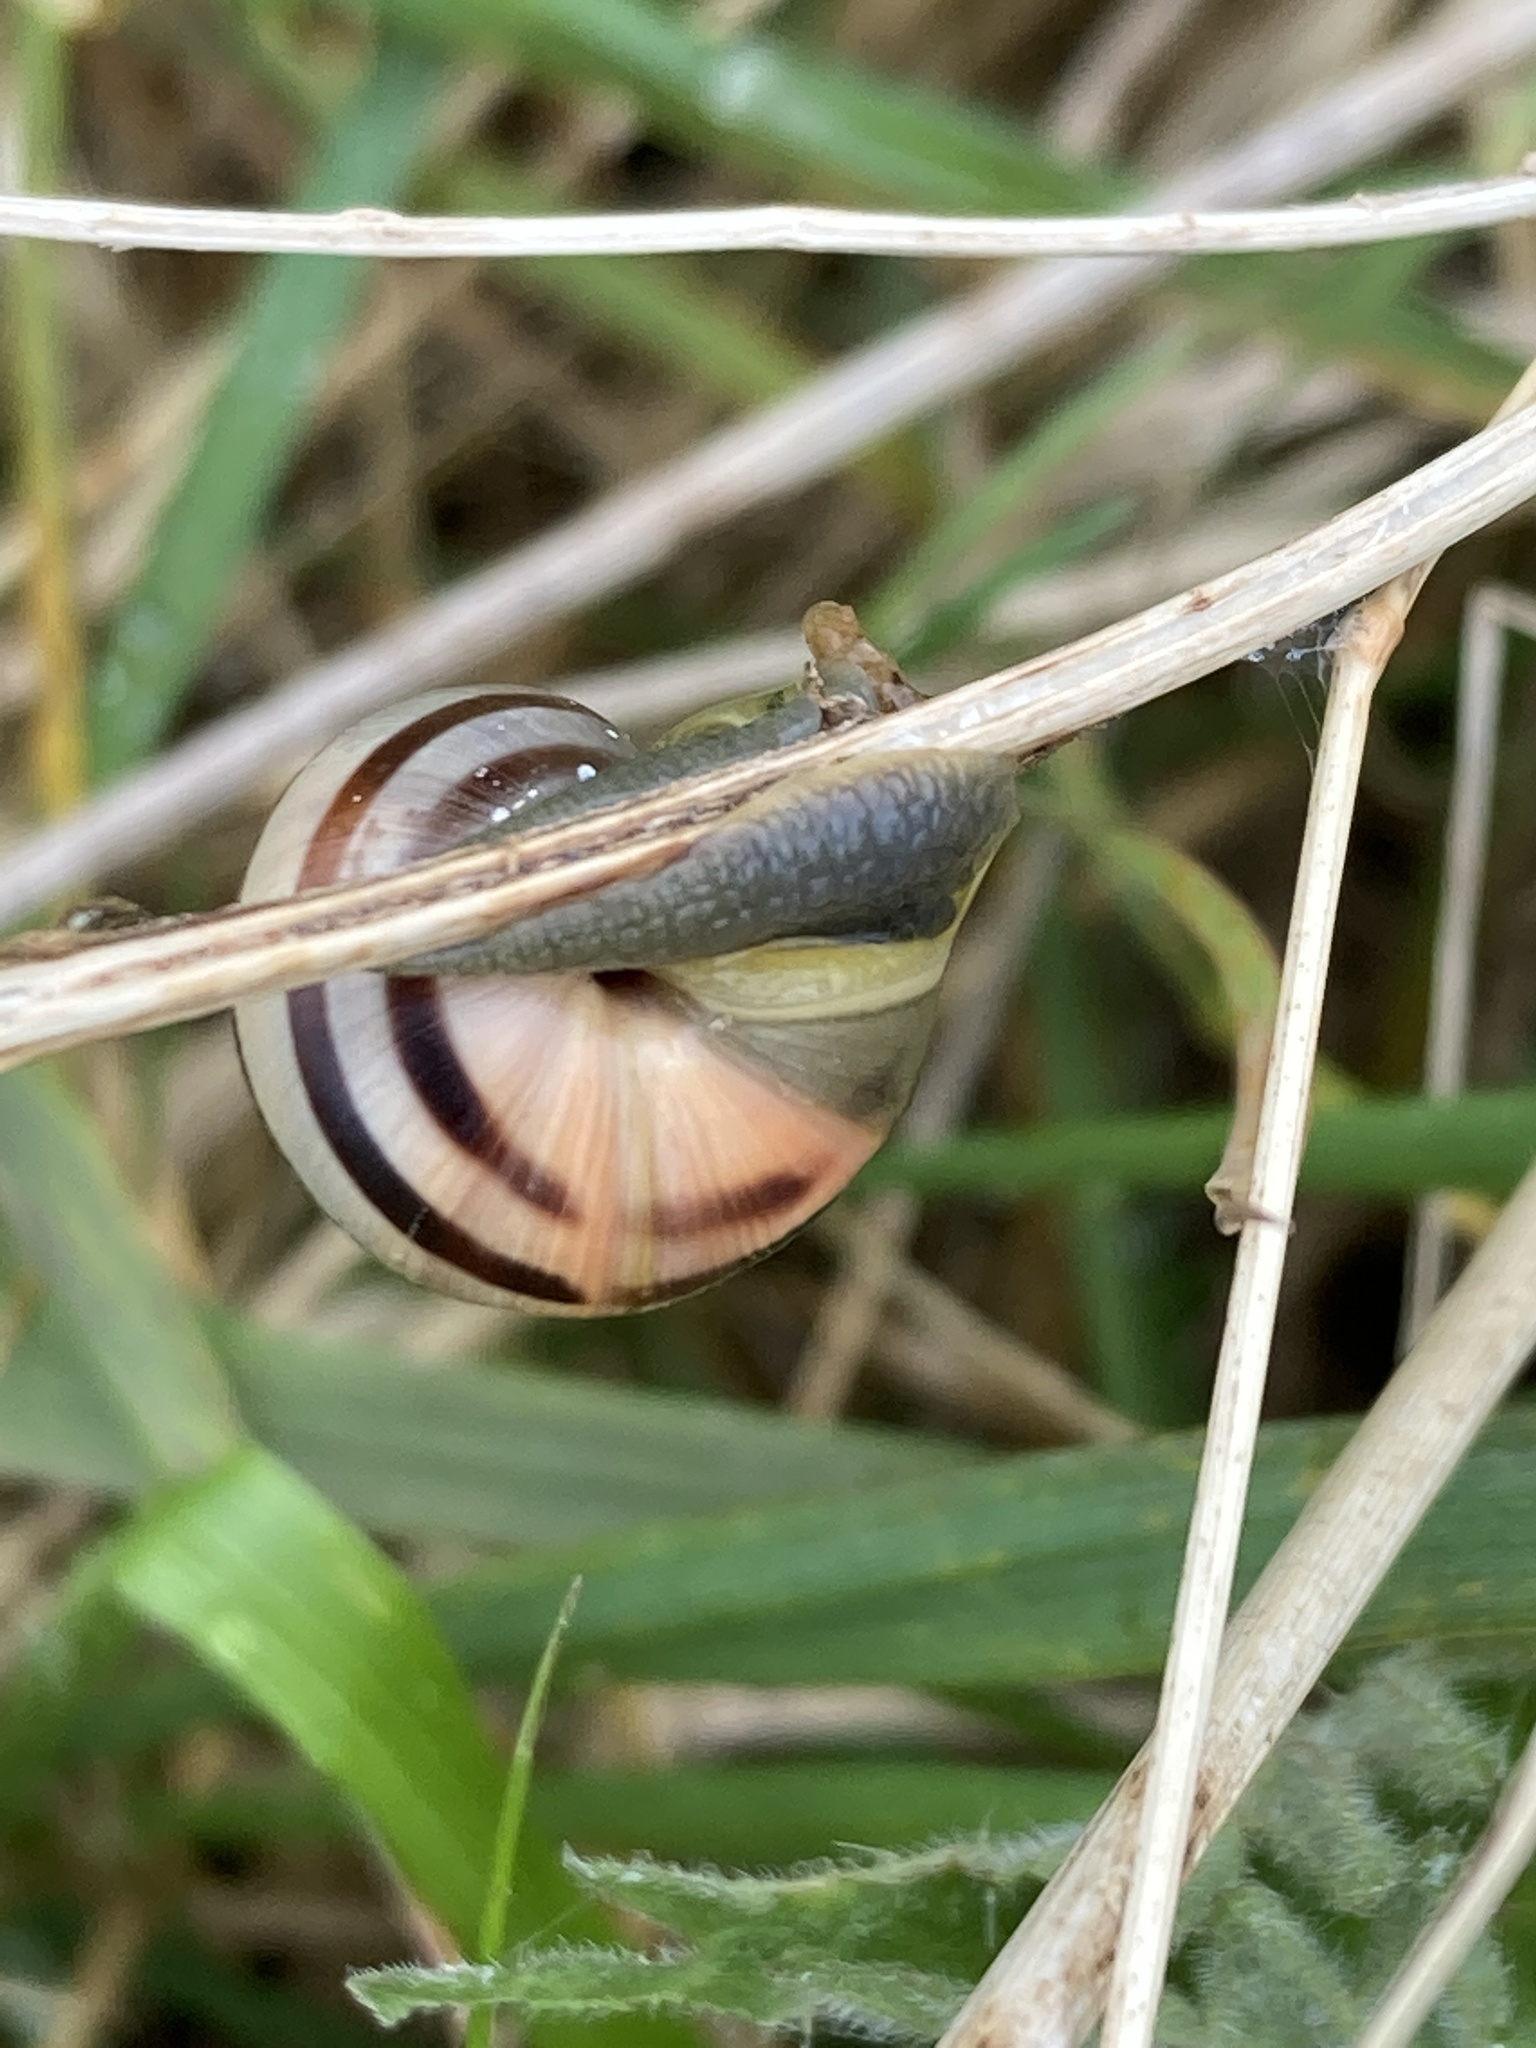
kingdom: Animalia
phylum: Mollusca
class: Gastropoda
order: Stylommatophora
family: Helicidae
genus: Cepaea
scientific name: Cepaea
